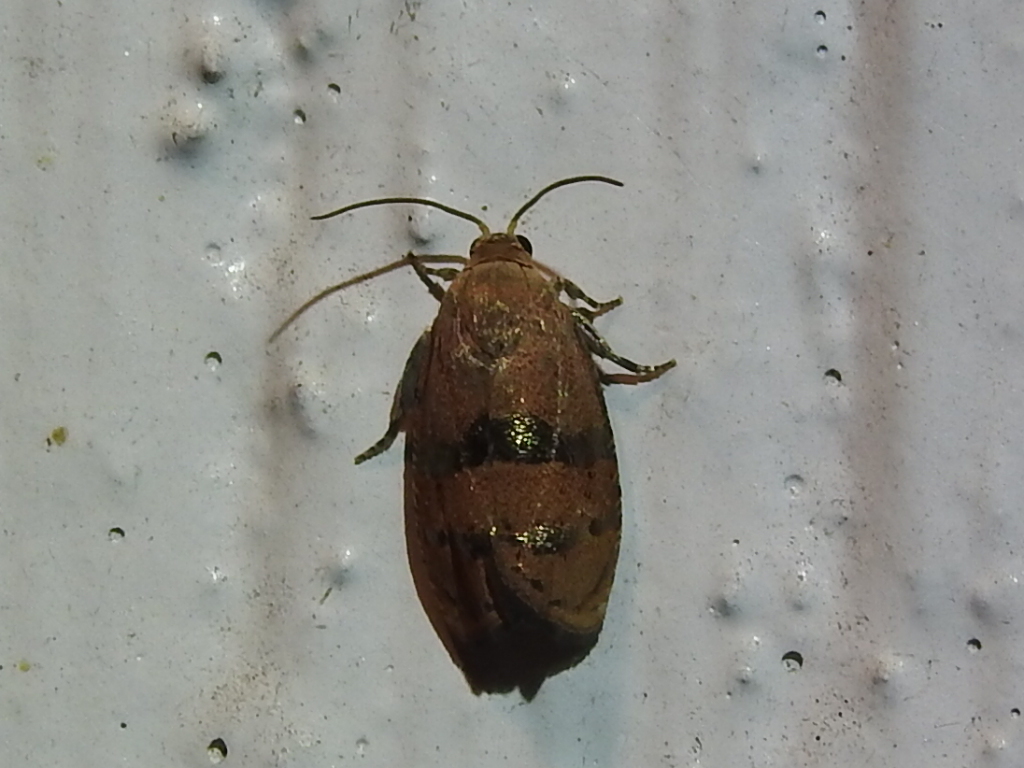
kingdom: Animalia
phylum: Arthropoda
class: Insecta
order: Lepidoptera
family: Tortricidae
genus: Cydia
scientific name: Cydia latiferreana
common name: Filbertworm moth
